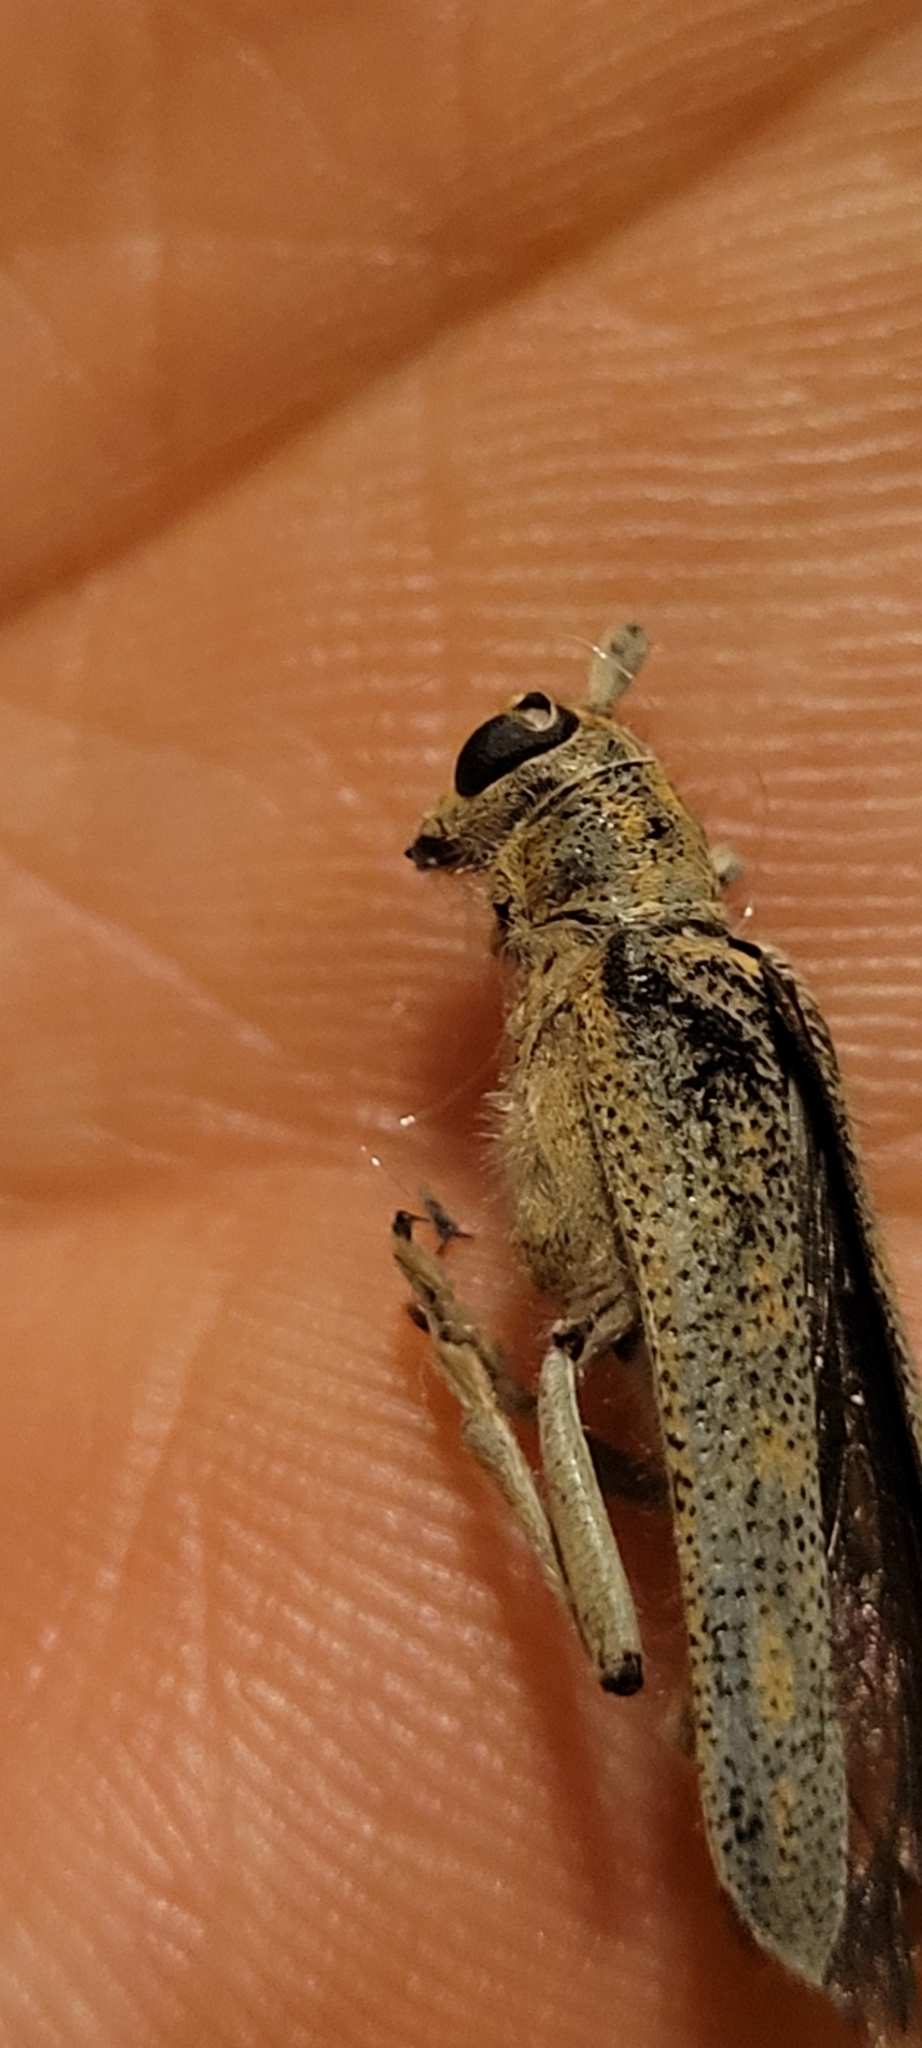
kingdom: Animalia
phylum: Arthropoda
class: Insecta
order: Coleoptera
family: Cerambycidae
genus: Saperda
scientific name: Saperda calcarata
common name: Poplar borer
